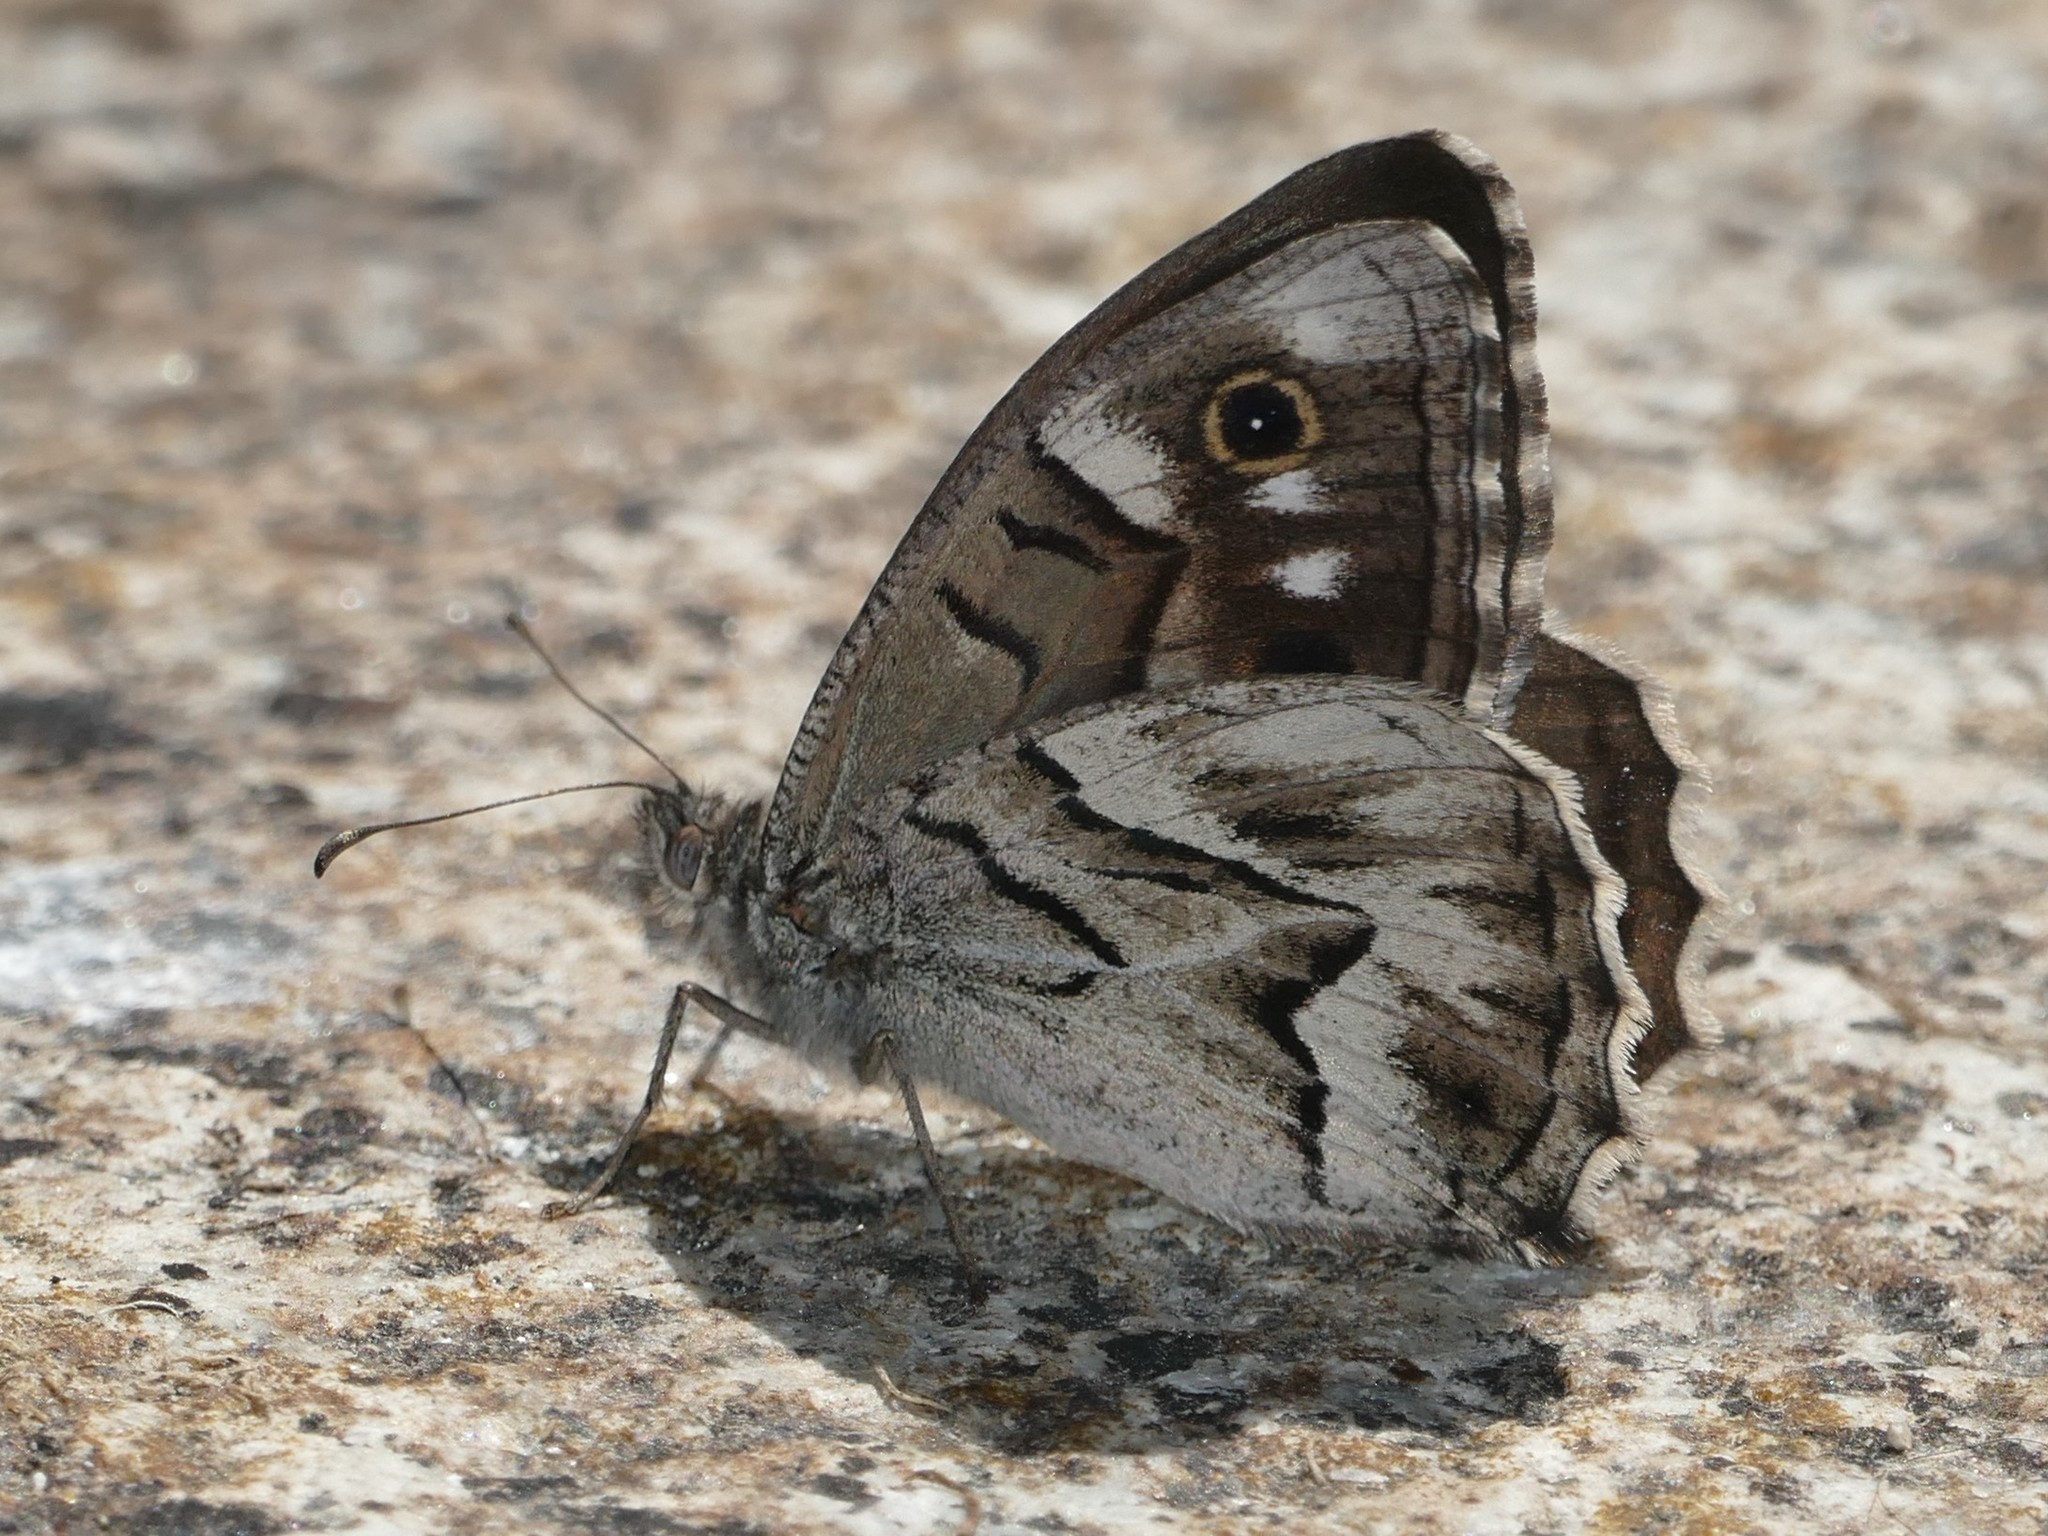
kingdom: Animalia
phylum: Arthropoda
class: Insecta
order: Lepidoptera
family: Nymphalidae
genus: Hipparchia
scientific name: Hipparchia fidia
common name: Striped grayling
